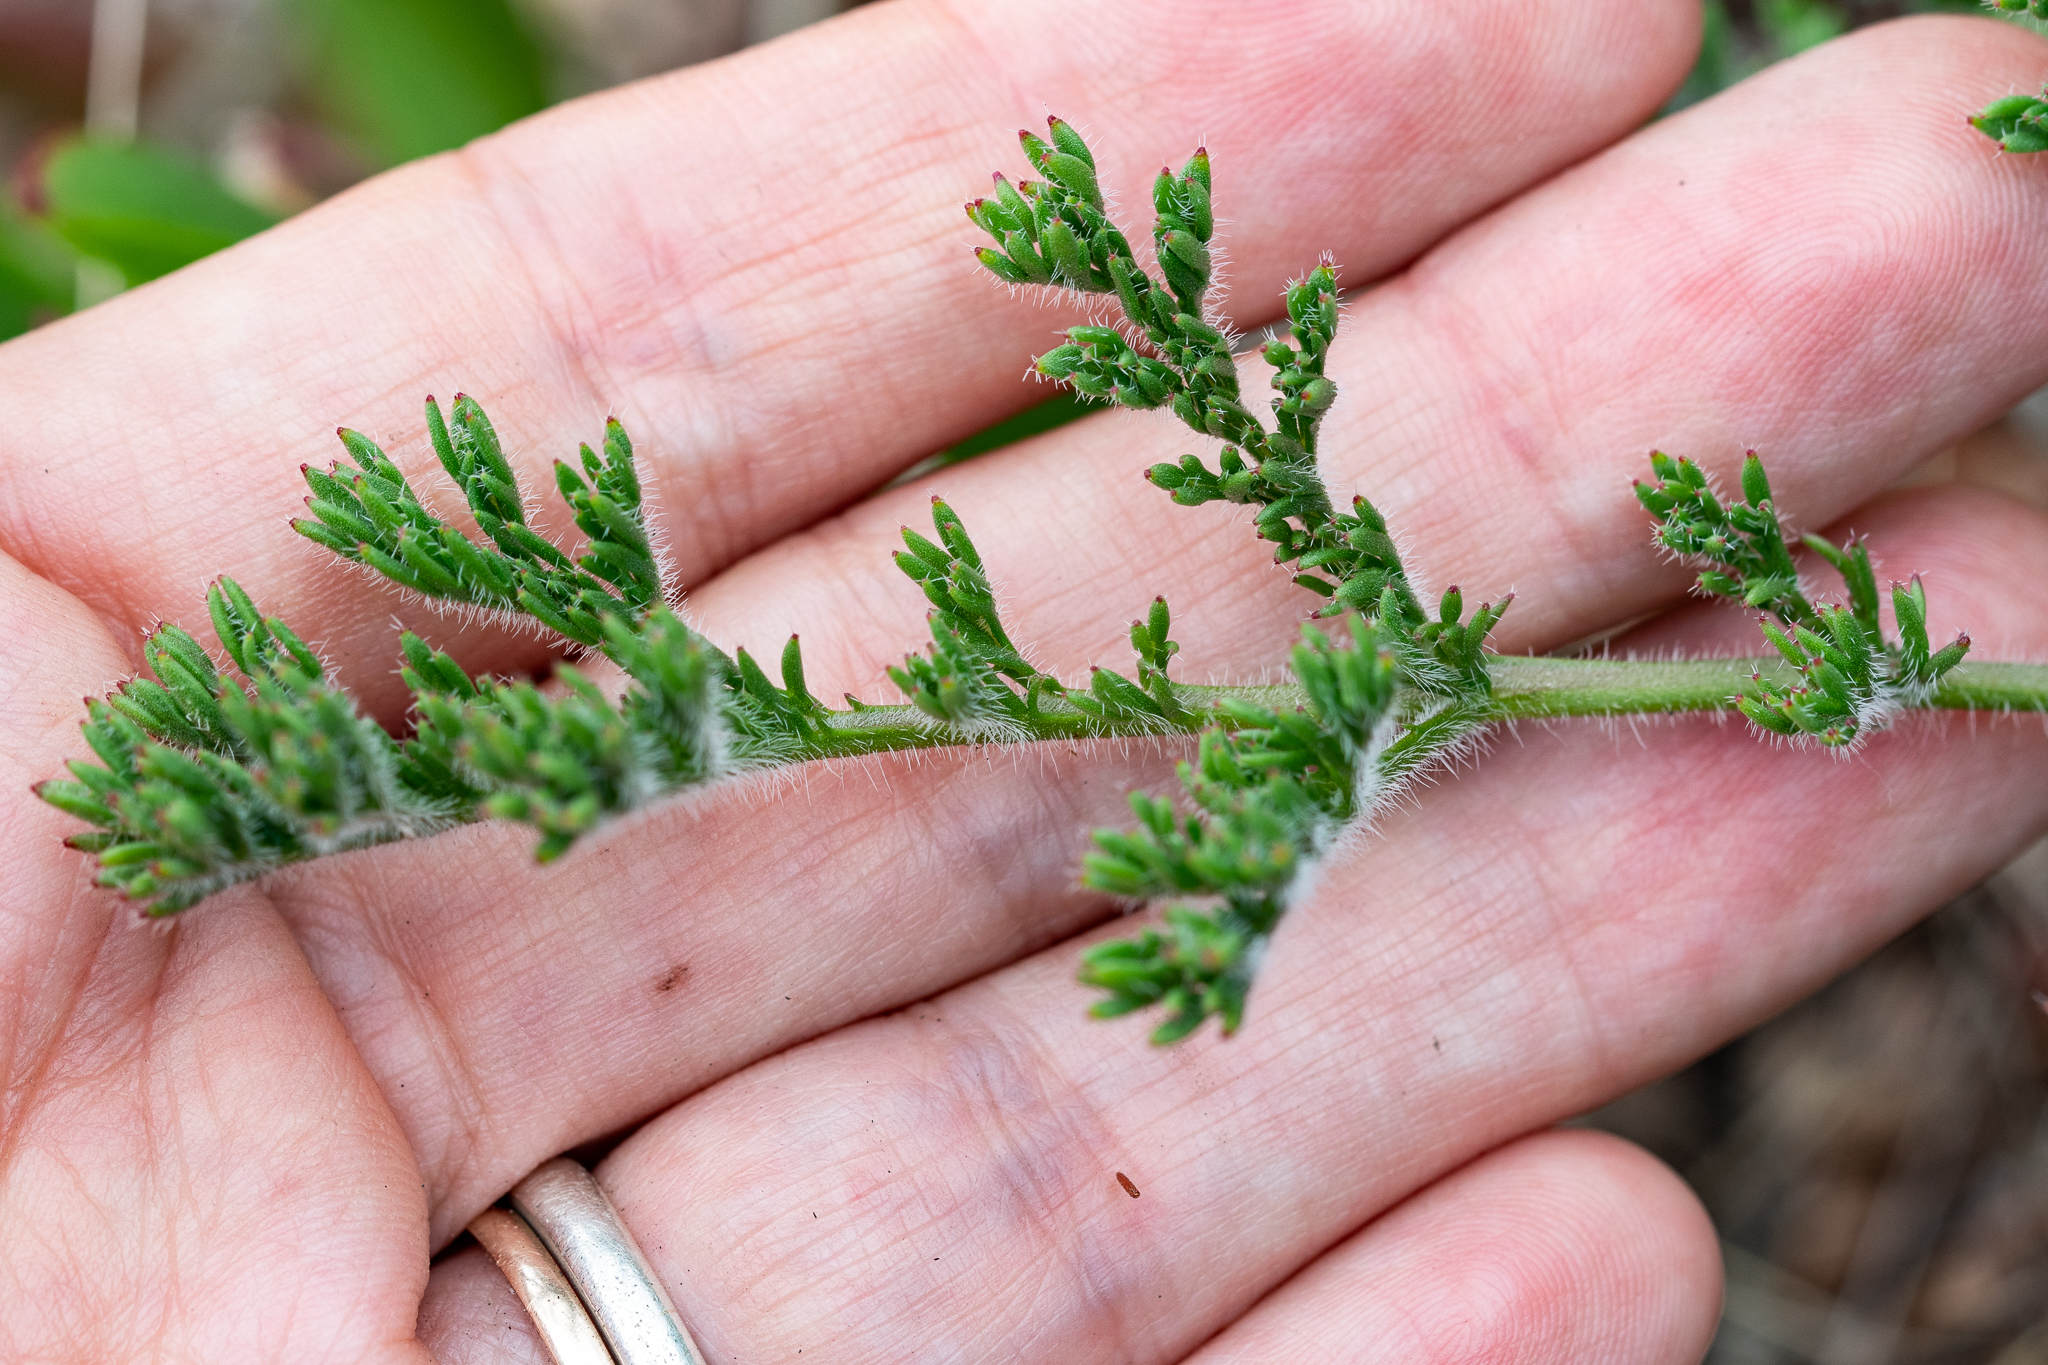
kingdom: Plantae
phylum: Tracheophyta
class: Magnoliopsida
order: Geraniales
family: Geraniaceae
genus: Pelargonium
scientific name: Pelargonium triste
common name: Night-scent pelargonium
